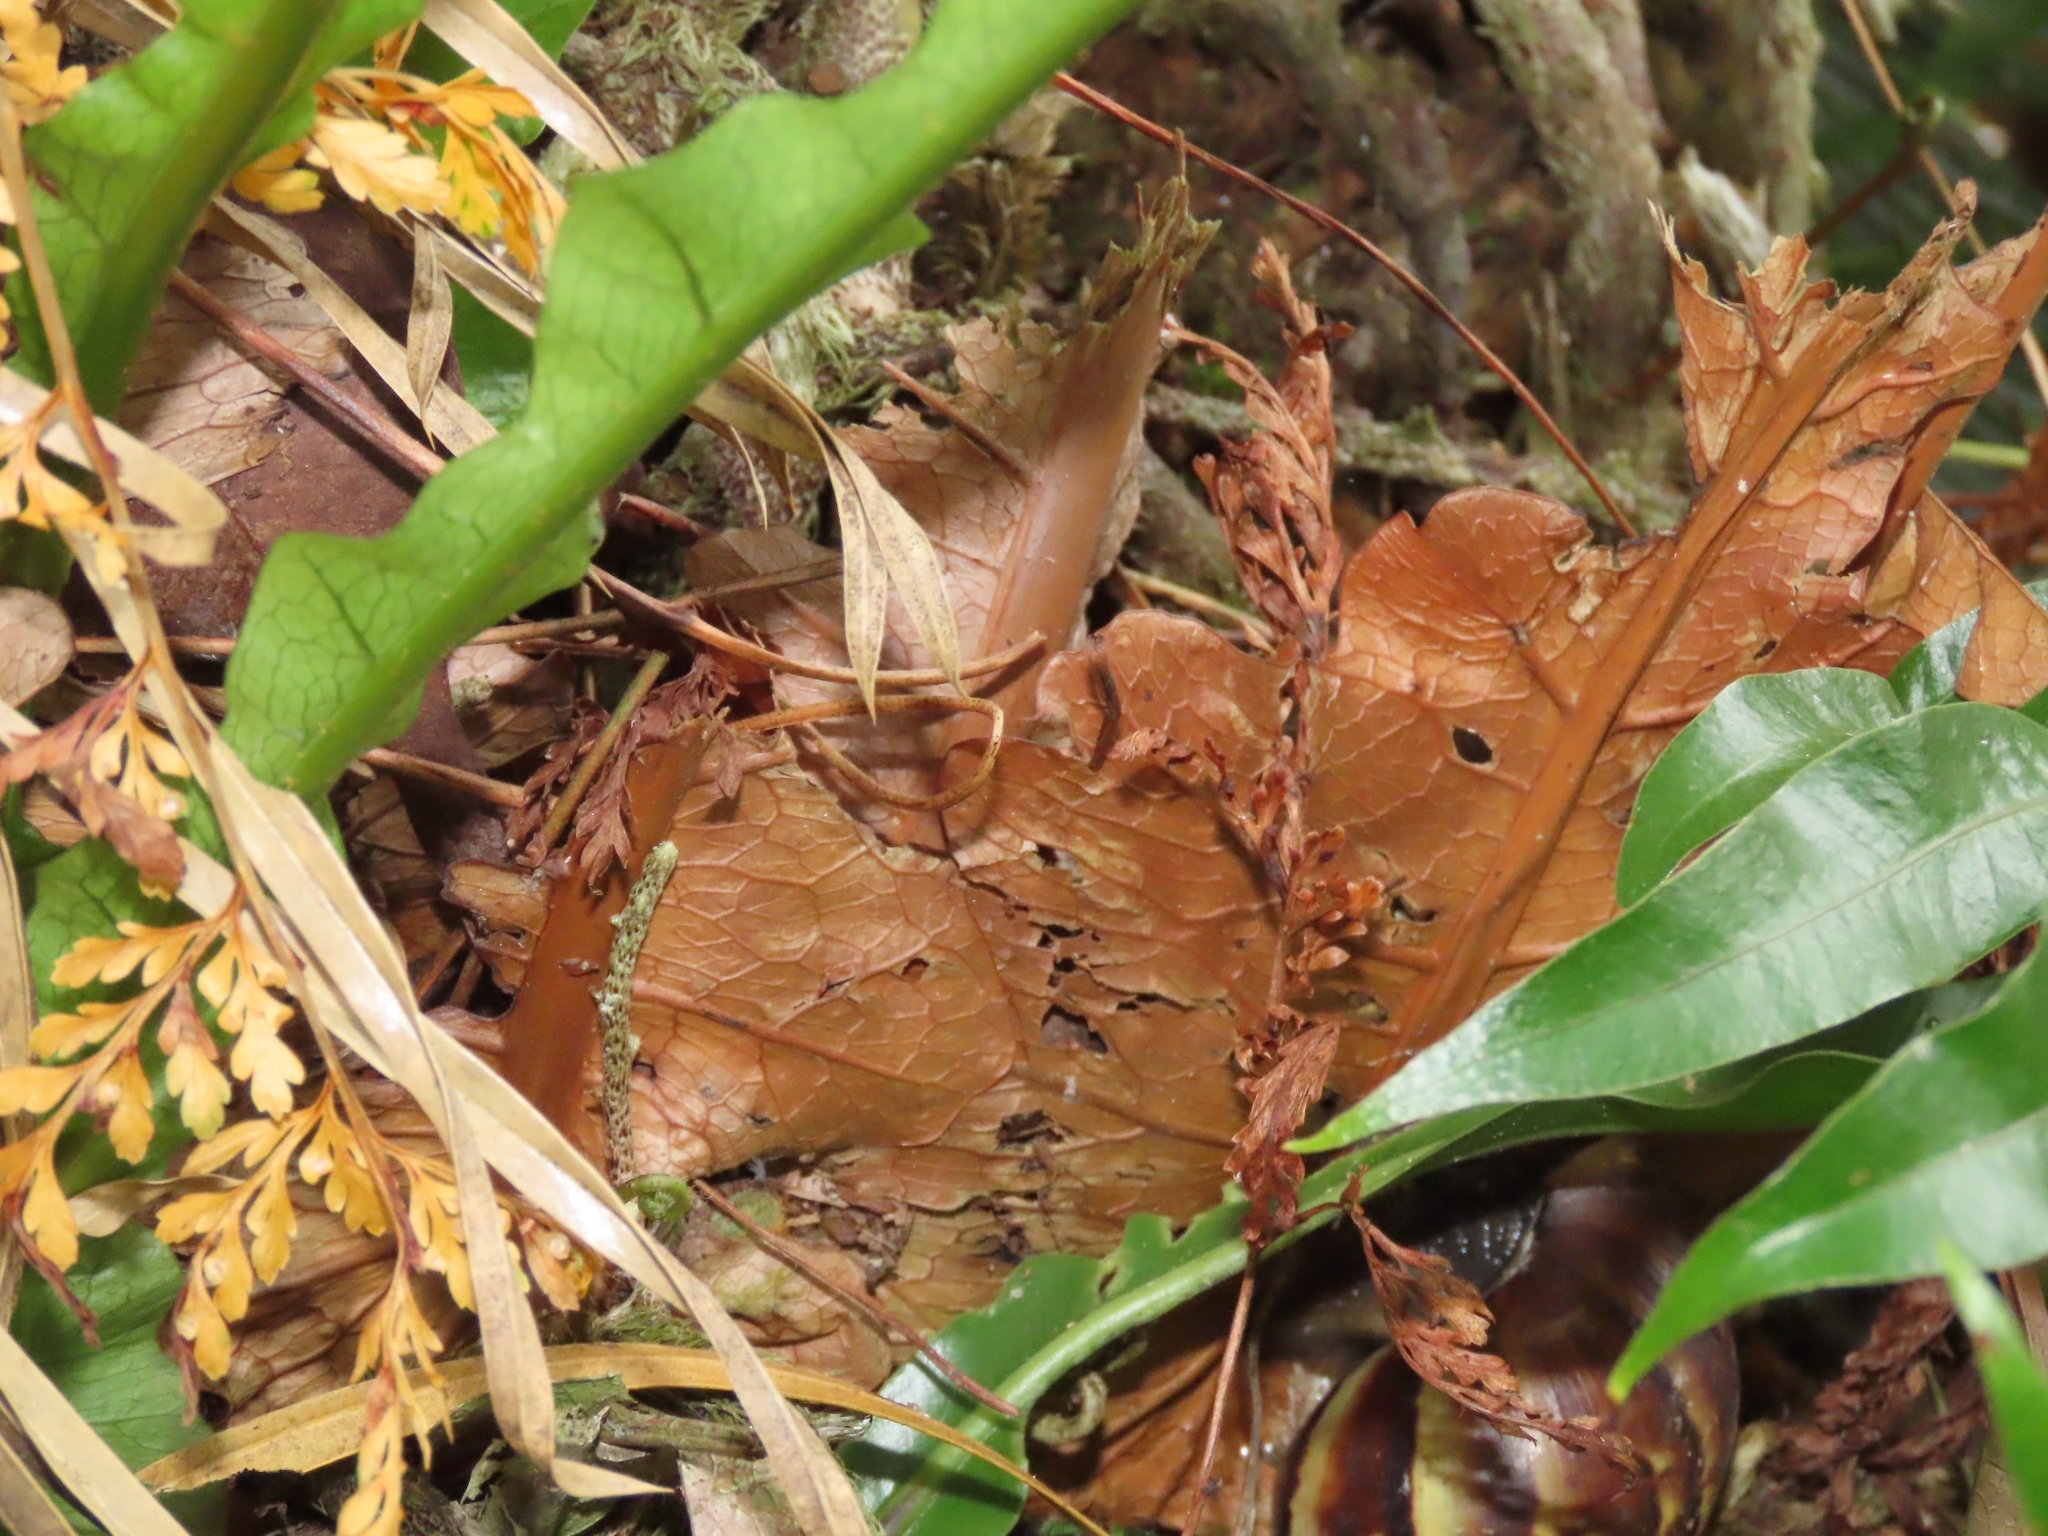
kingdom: Plantae
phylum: Tracheophyta
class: Polypodiopsida
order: Polypodiales
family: Polypodiaceae
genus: Drynaria
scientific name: Drynaria coronans
